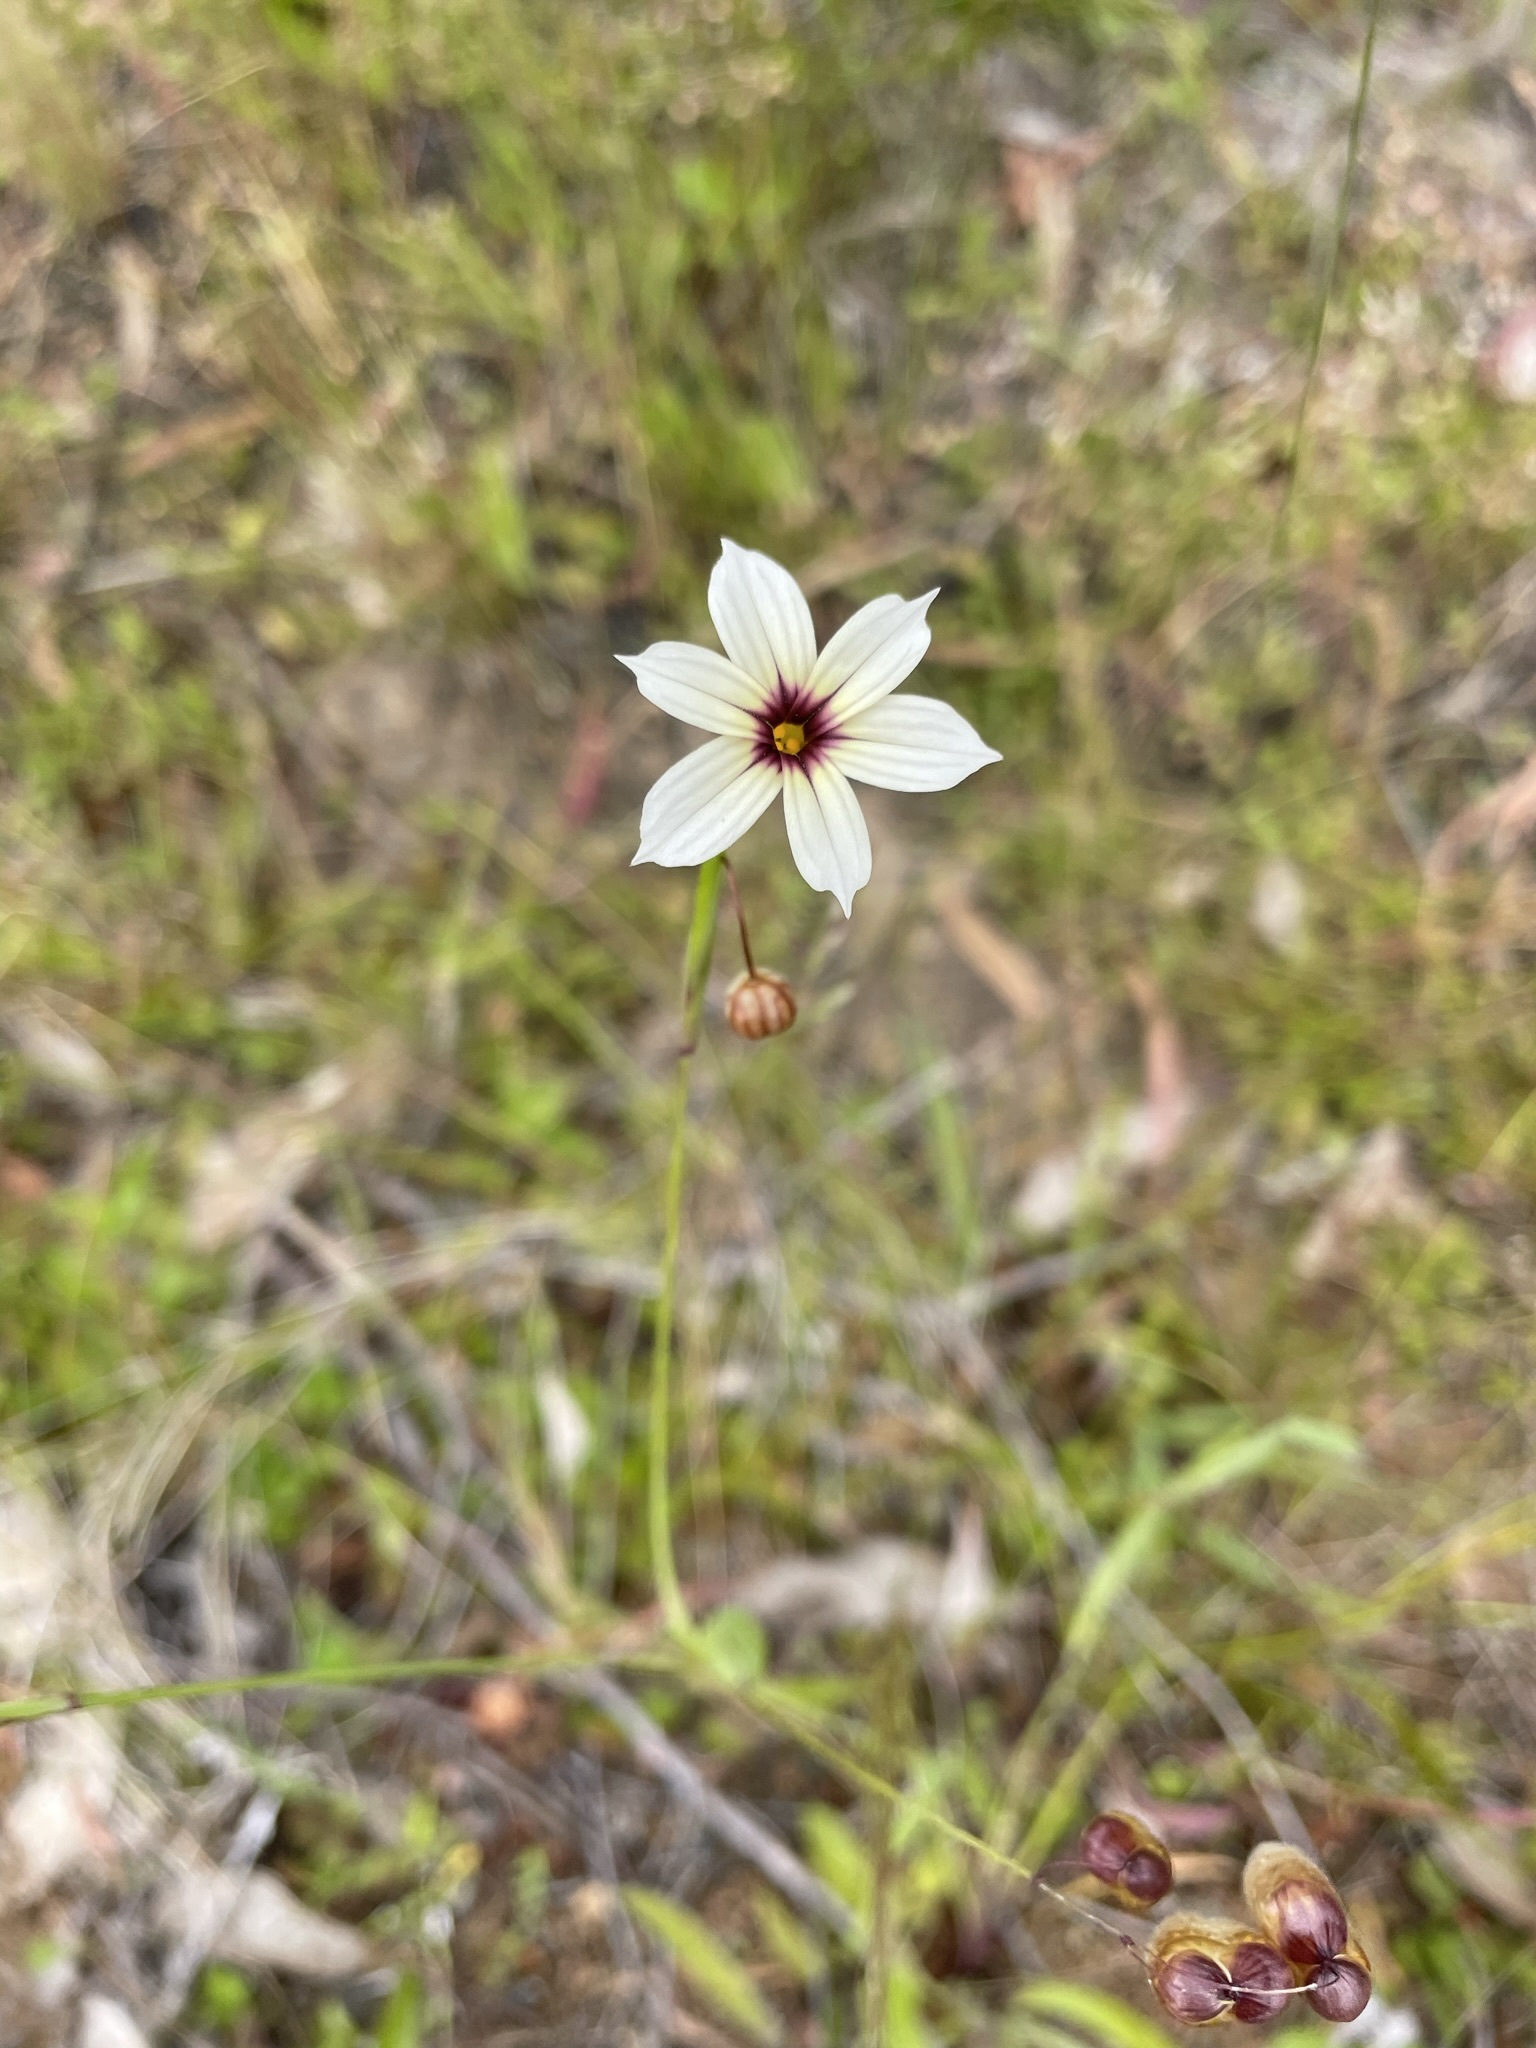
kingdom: Plantae
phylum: Tracheophyta
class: Liliopsida
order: Asparagales
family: Iridaceae
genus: Sisyrinchium
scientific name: Sisyrinchium micranthum
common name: Bermuda pigroot
